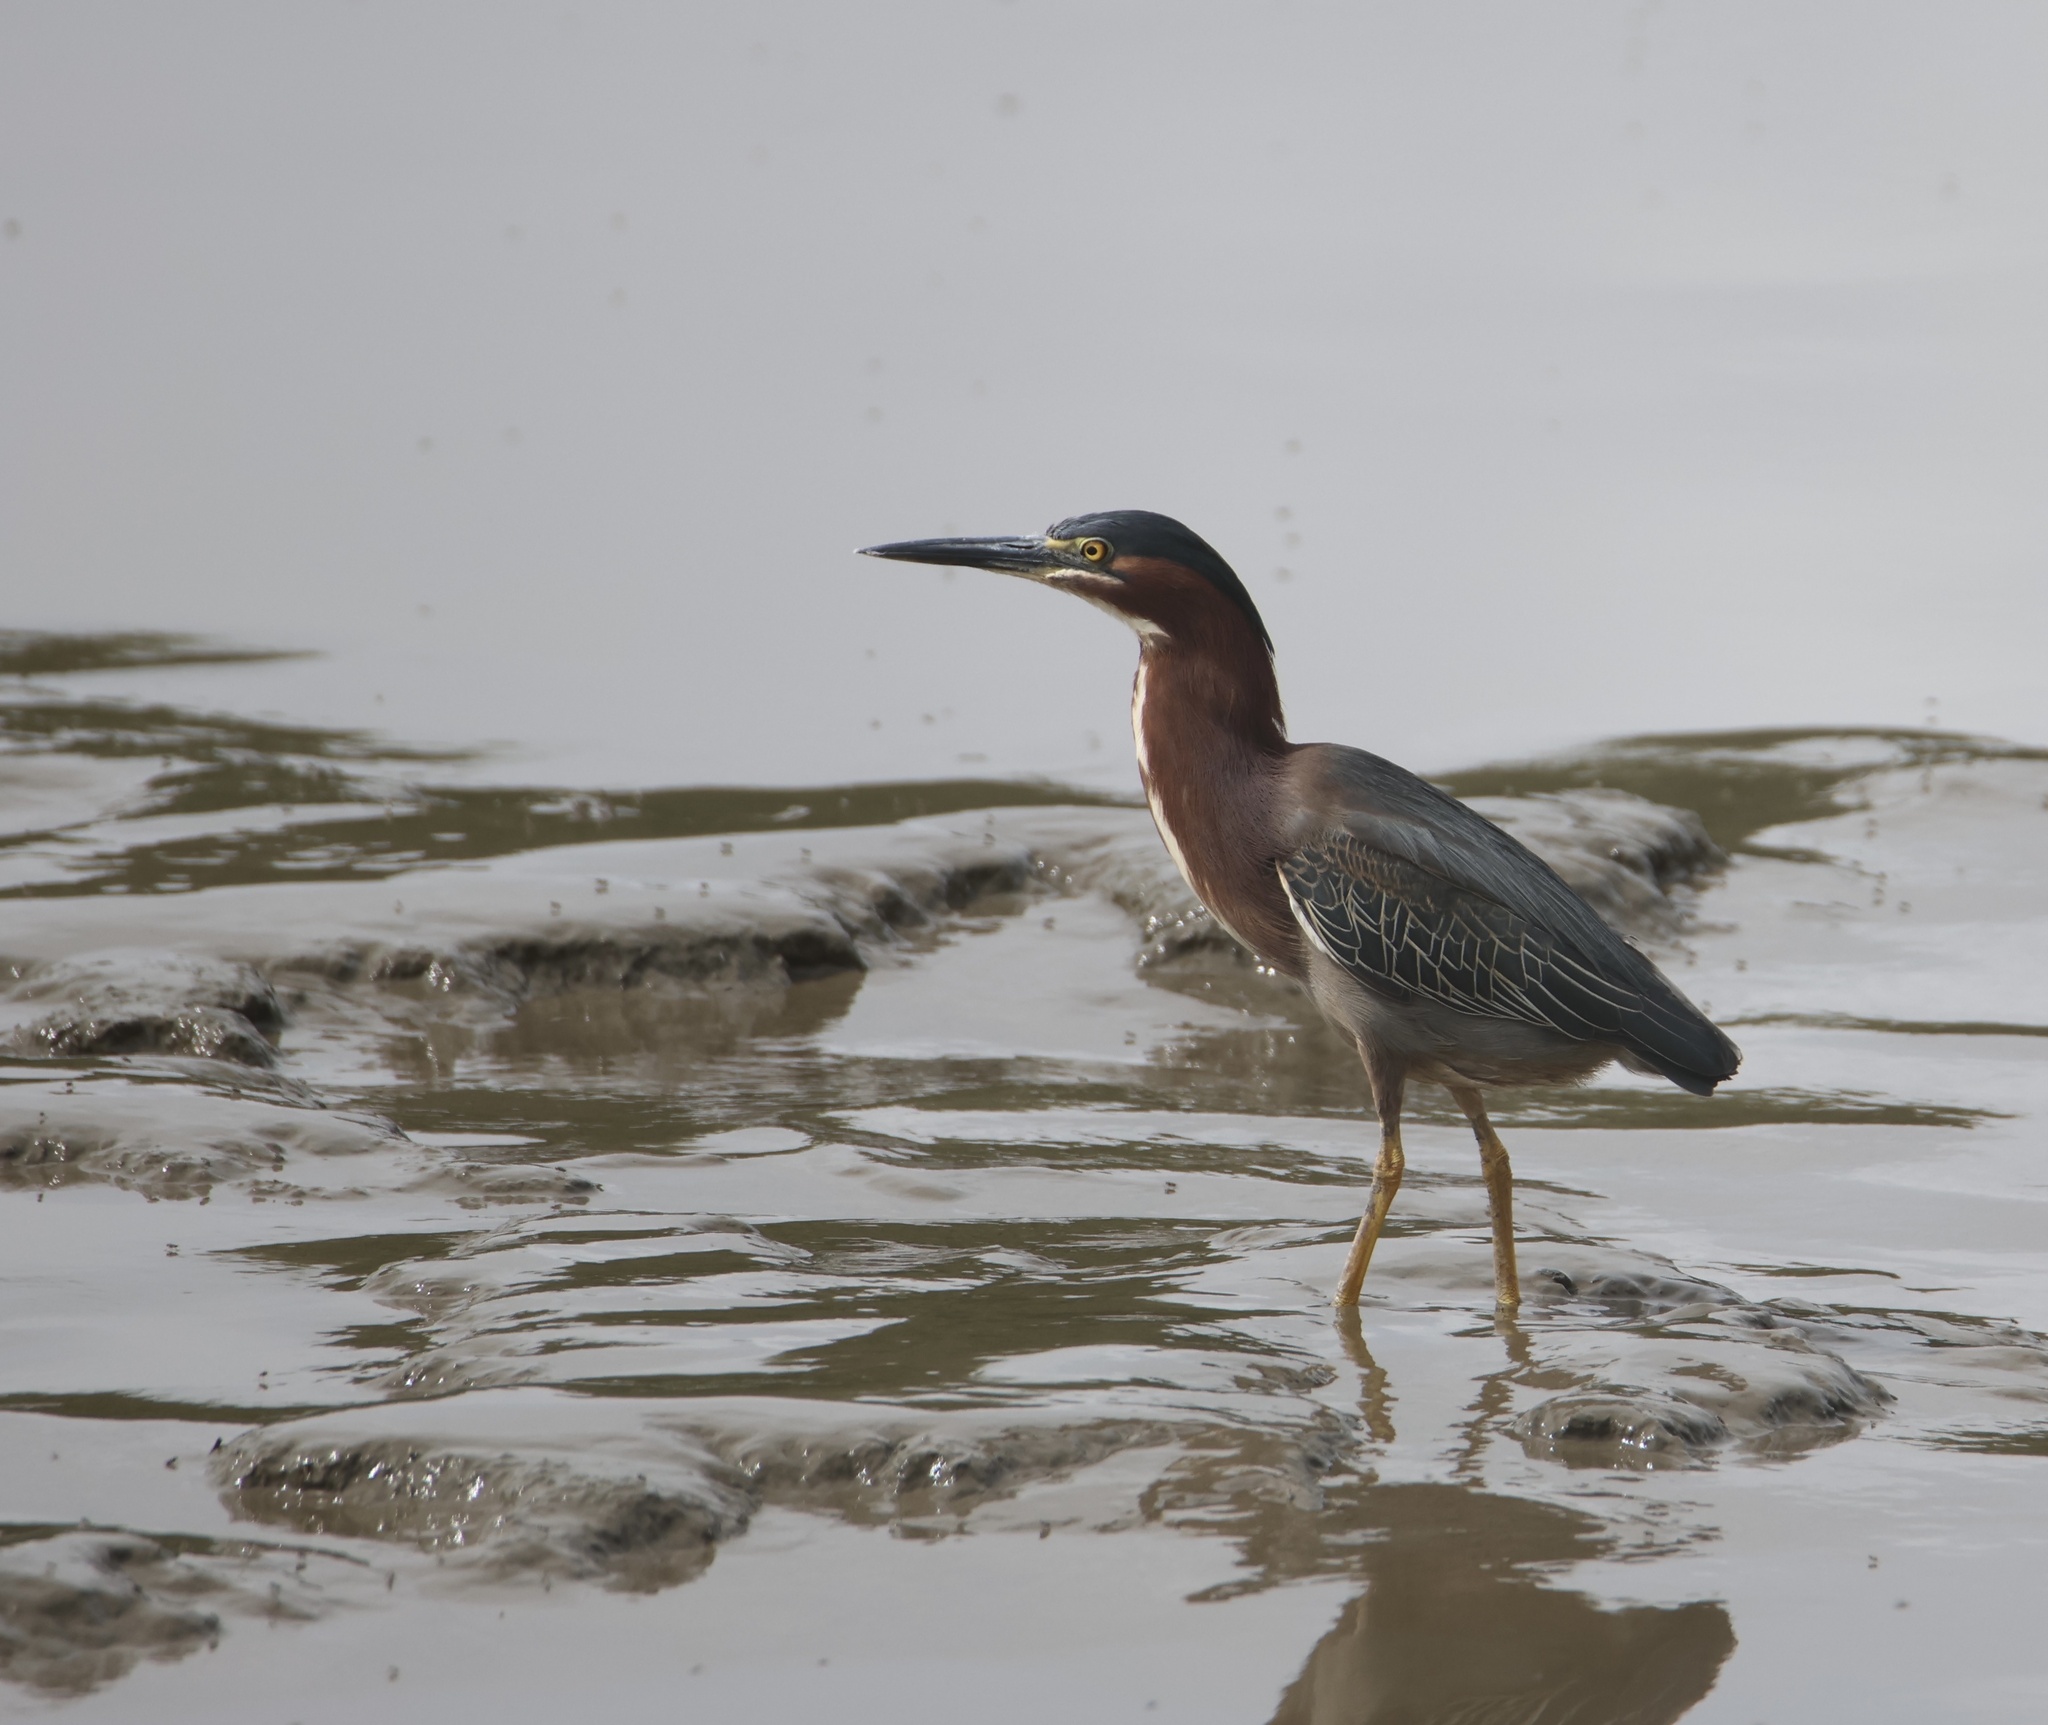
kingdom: Animalia
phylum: Chordata
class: Aves
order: Pelecaniformes
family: Ardeidae
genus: Butorides
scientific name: Butorides virescens
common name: Green heron
